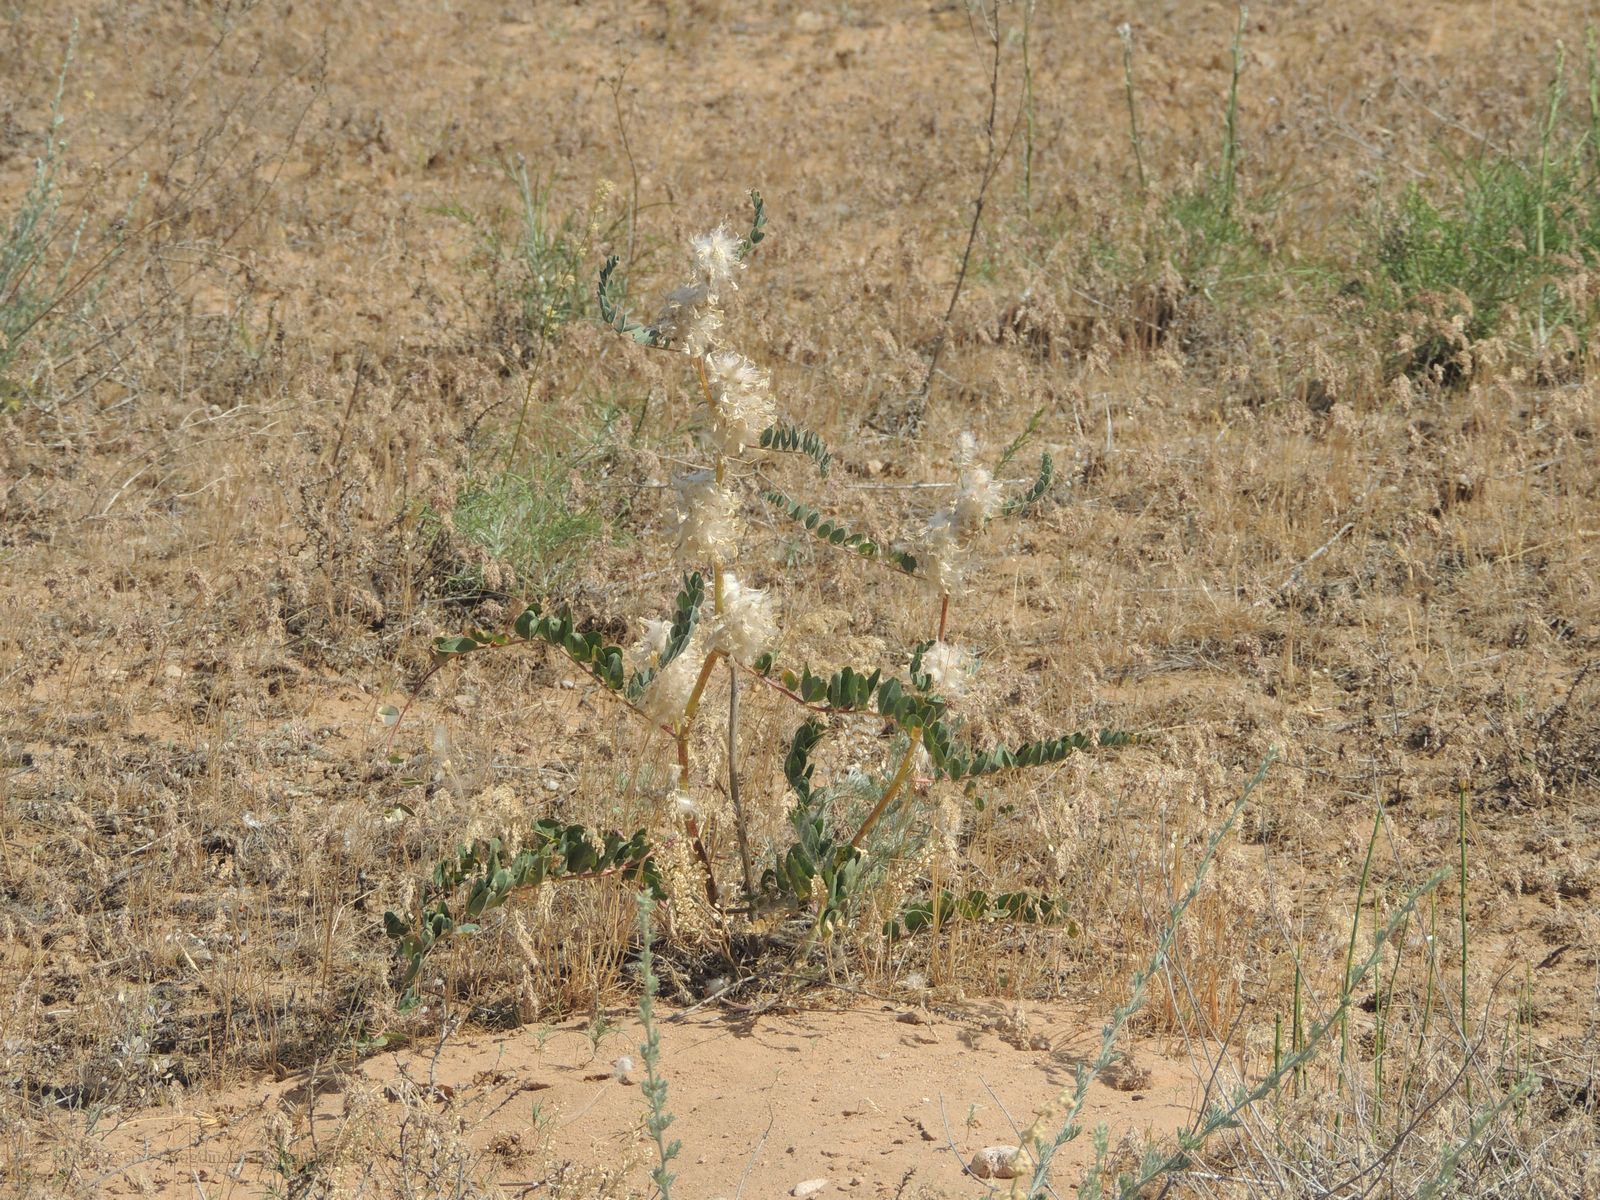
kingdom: Plantae
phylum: Tracheophyta
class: Magnoliopsida
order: Fabales
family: Fabaceae
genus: Astragalus
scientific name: Astragalus vulpinus
